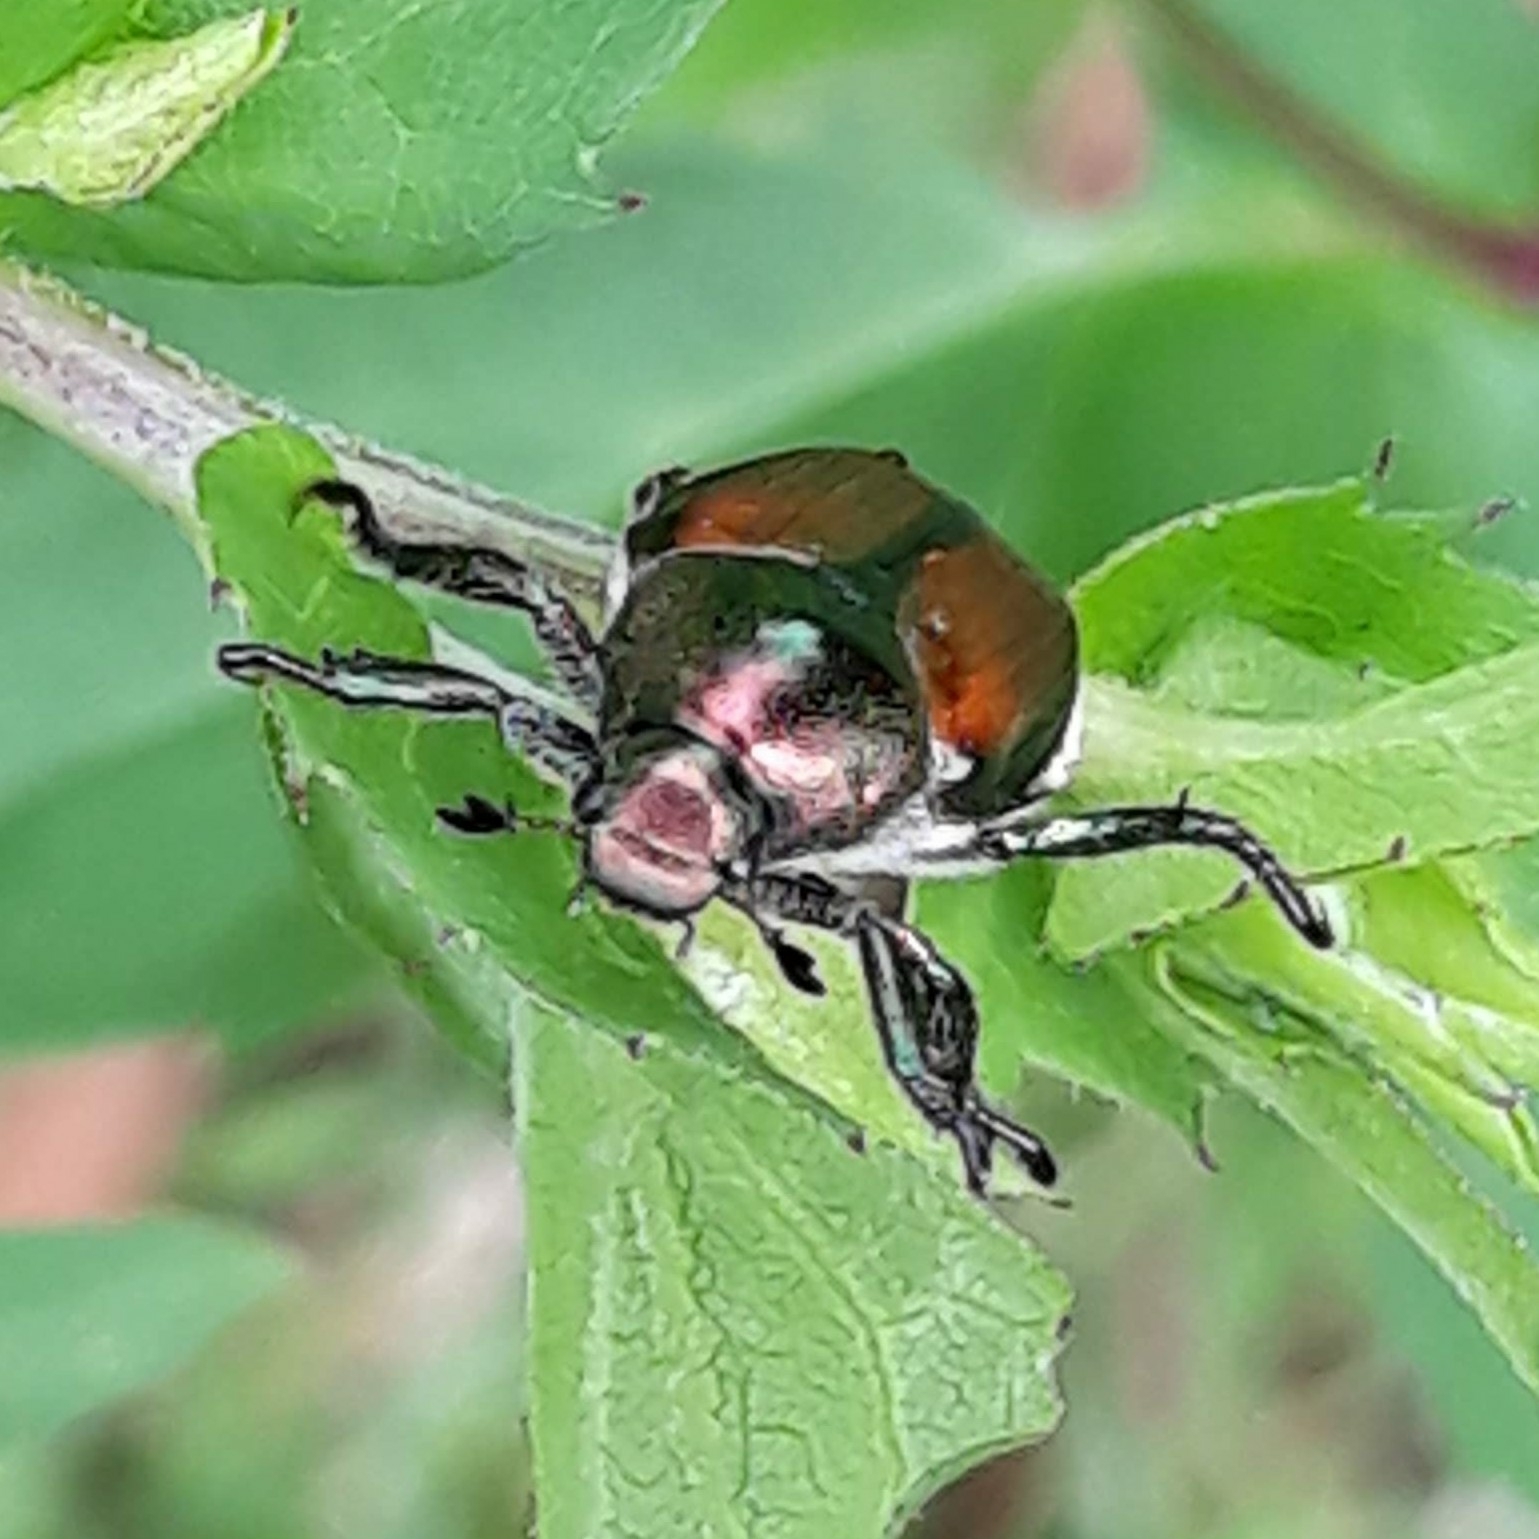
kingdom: Animalia
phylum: Arthropoda
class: Insecta
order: Coleoptera
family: Scarabaeidae
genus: Popillia
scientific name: Popillia japonica
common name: Japanese beetle
